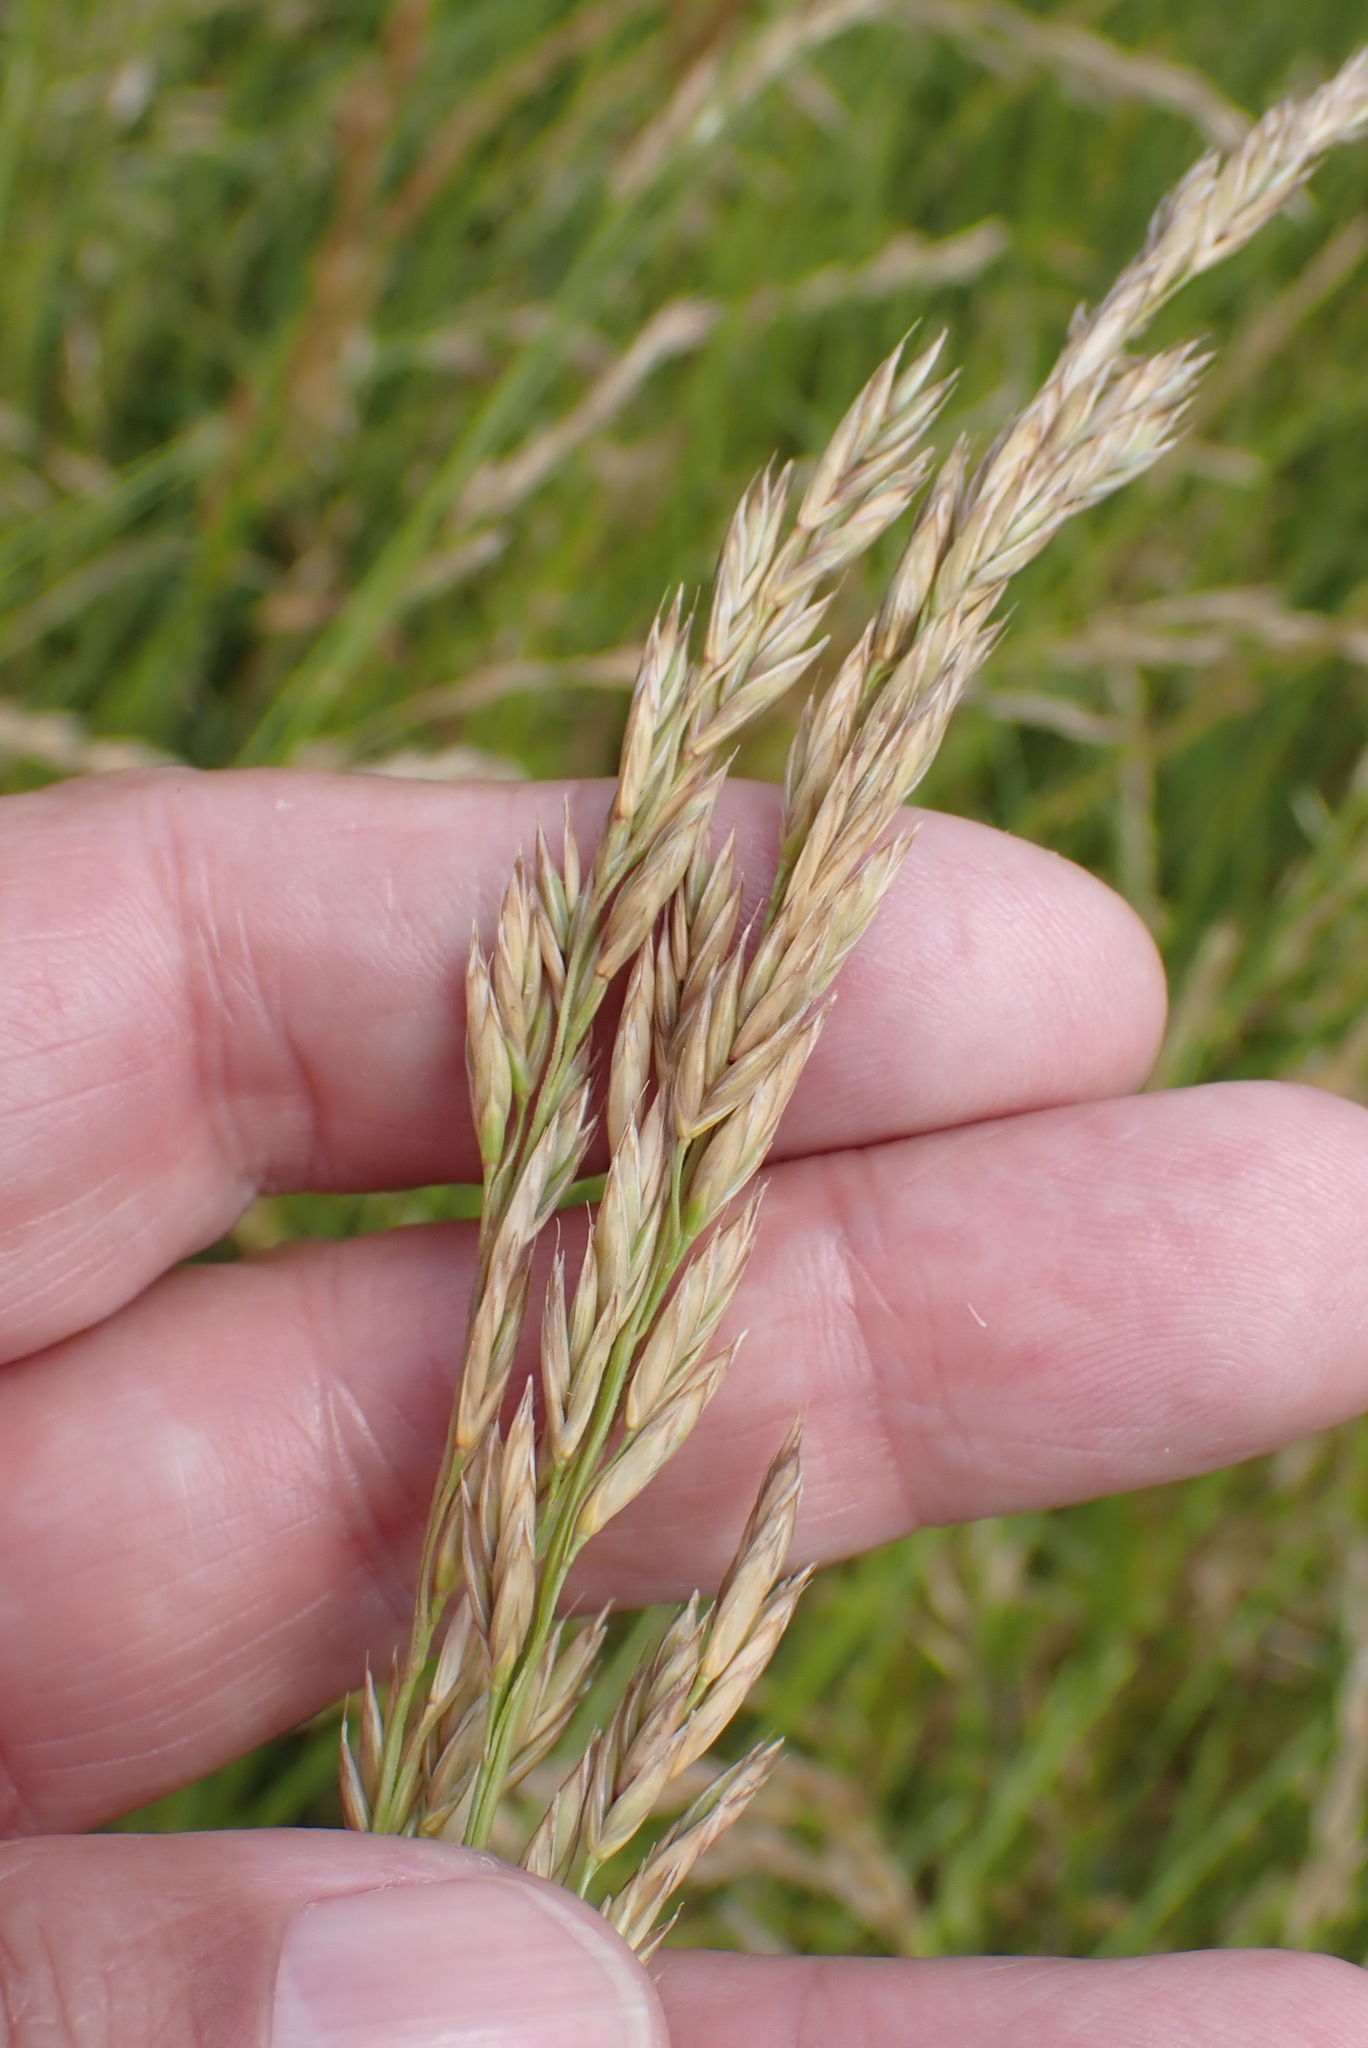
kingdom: Plantae
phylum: Tracheophyta
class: Liliopsida
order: Poales
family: Poaceae
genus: Lolium
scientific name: Lolium pratense
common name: Dover grass
